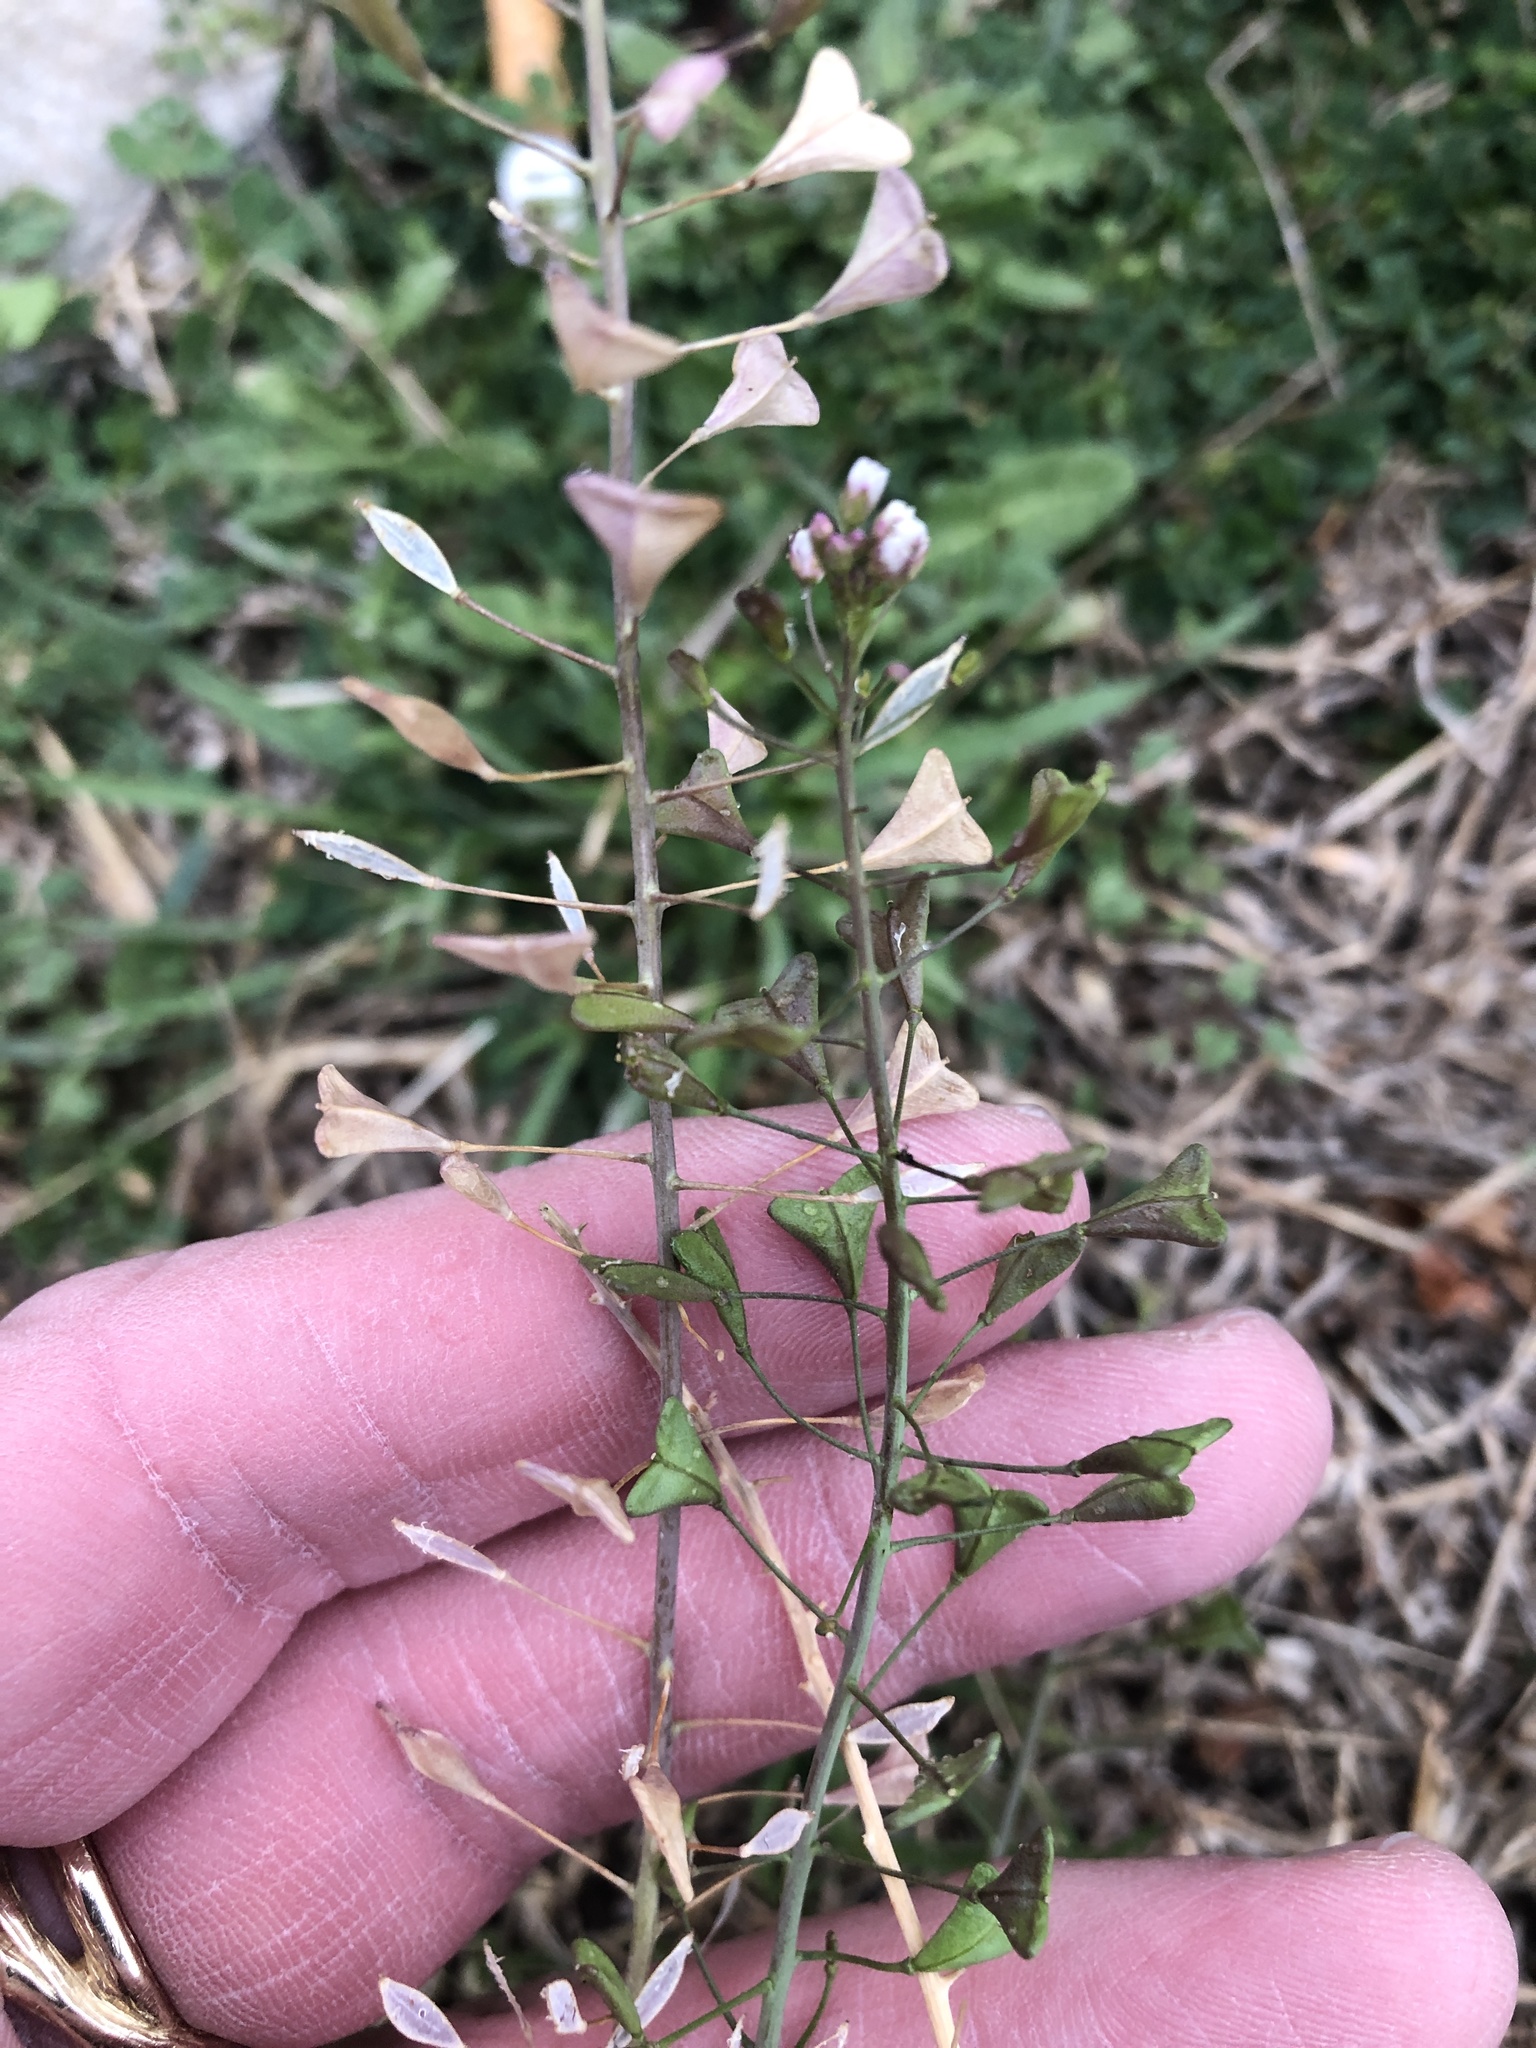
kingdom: Plantae
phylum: Tracheophyta
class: Magnoliopsida
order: Brassicales
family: Brassicaceae
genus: Capsella
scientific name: Capsella bursa-pastoris
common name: Shepherd's purse
